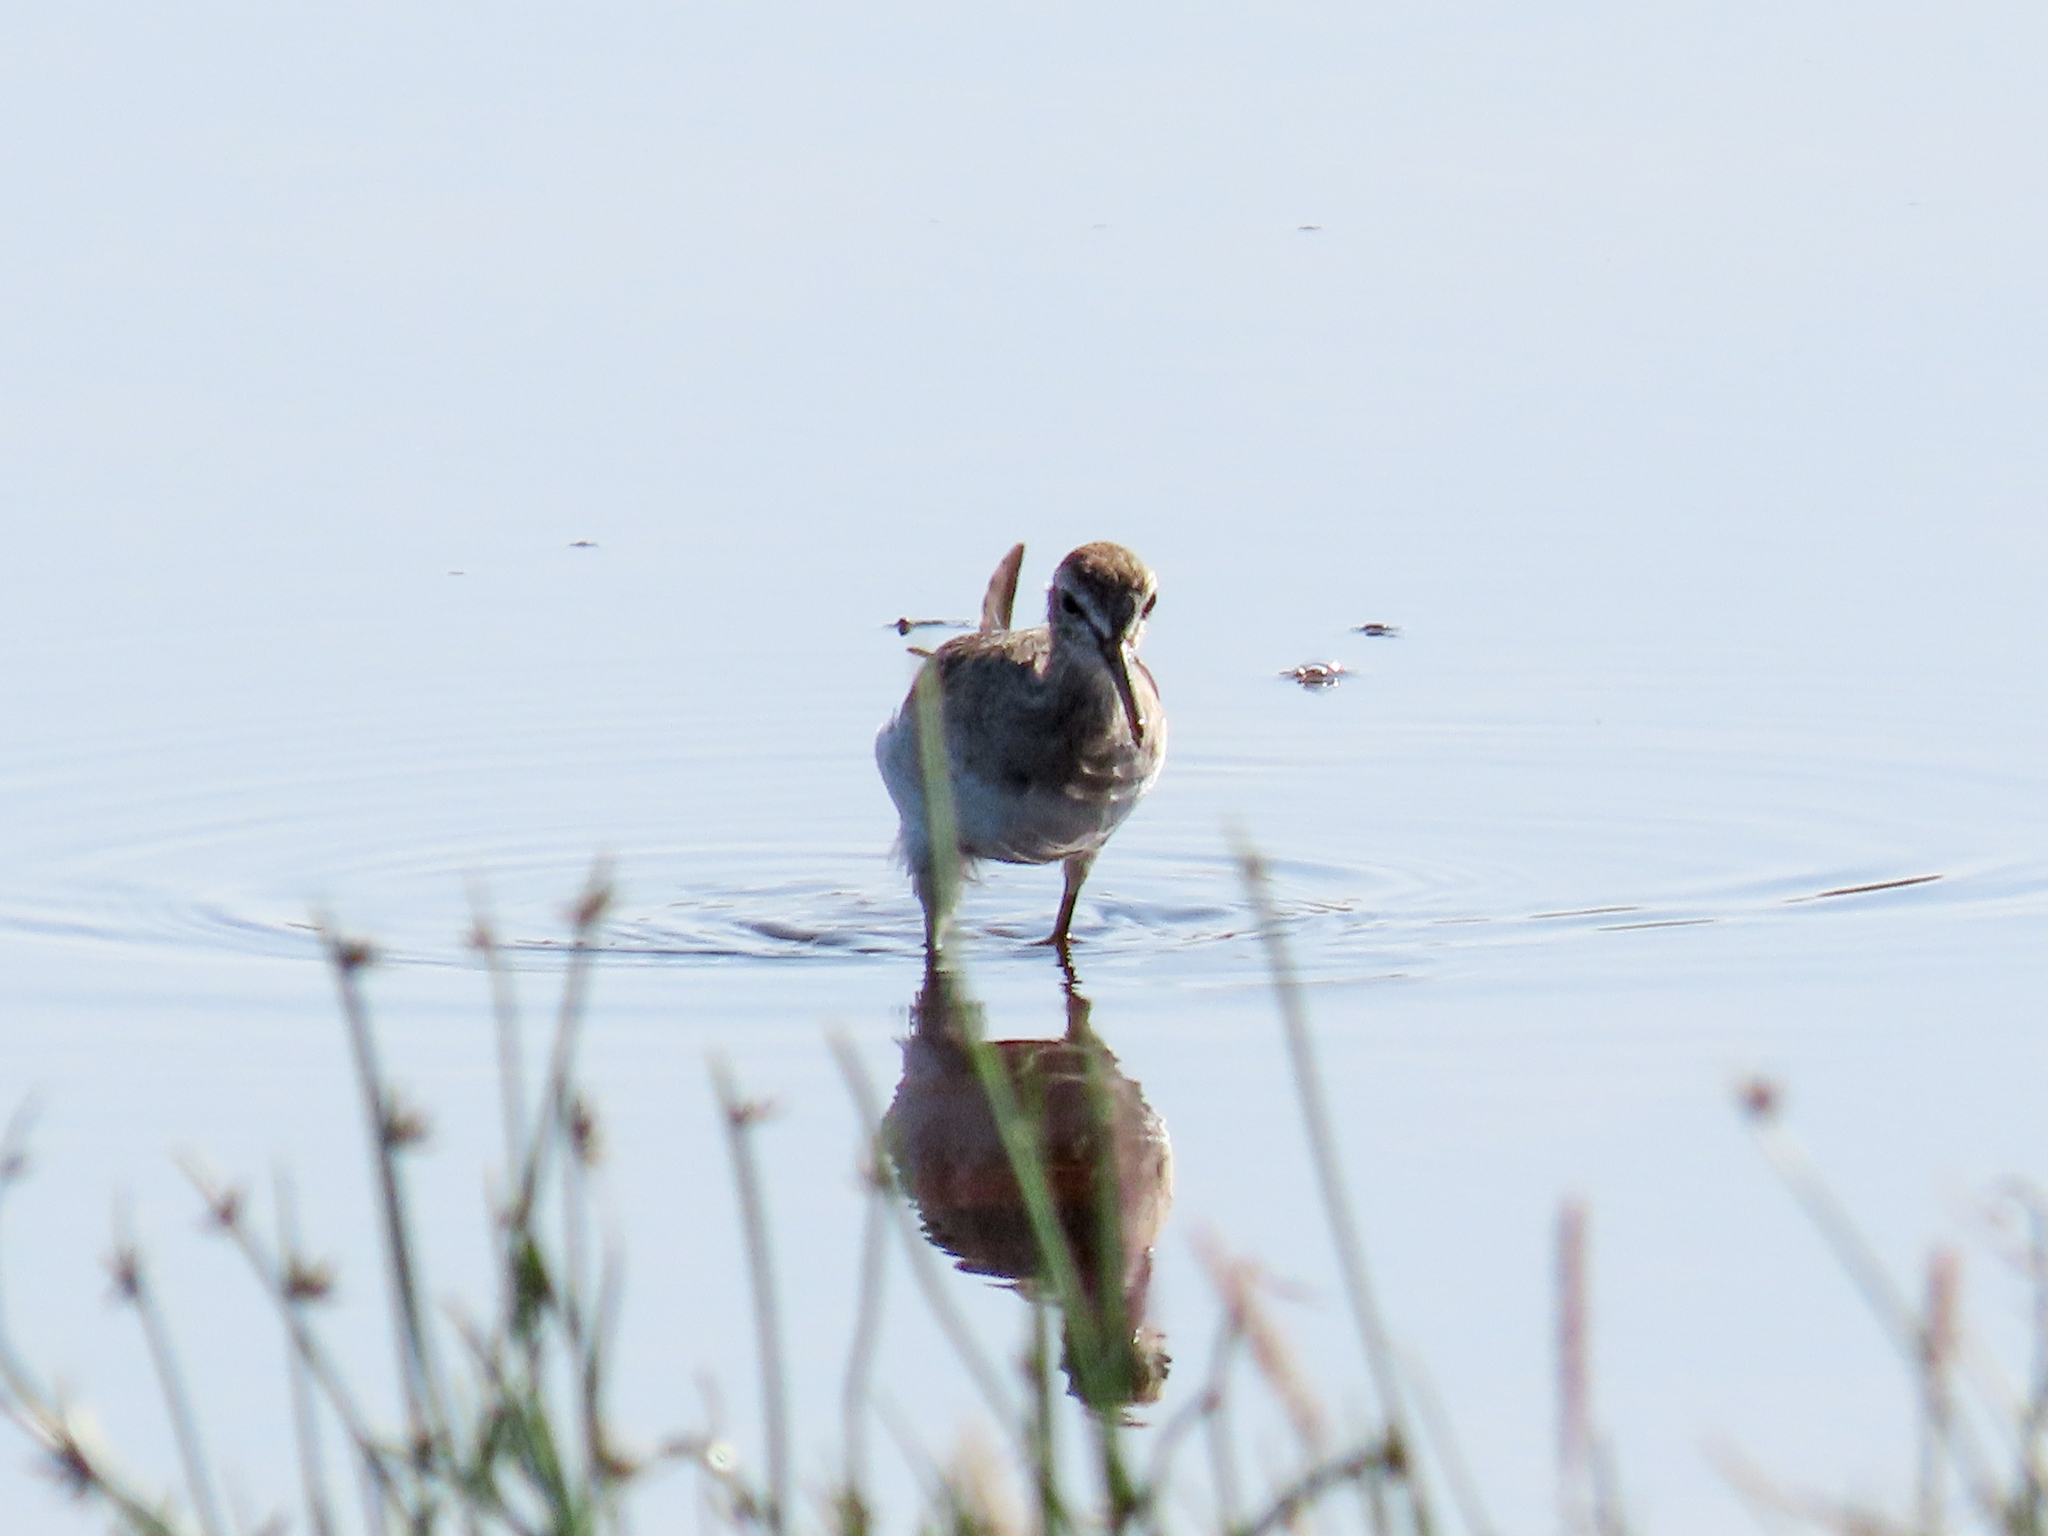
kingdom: Animalia
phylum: Chordata
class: Aves
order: Charadriiformes
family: Scolopacidae
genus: Calidris
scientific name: Calidris pugnax
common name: Ruff
